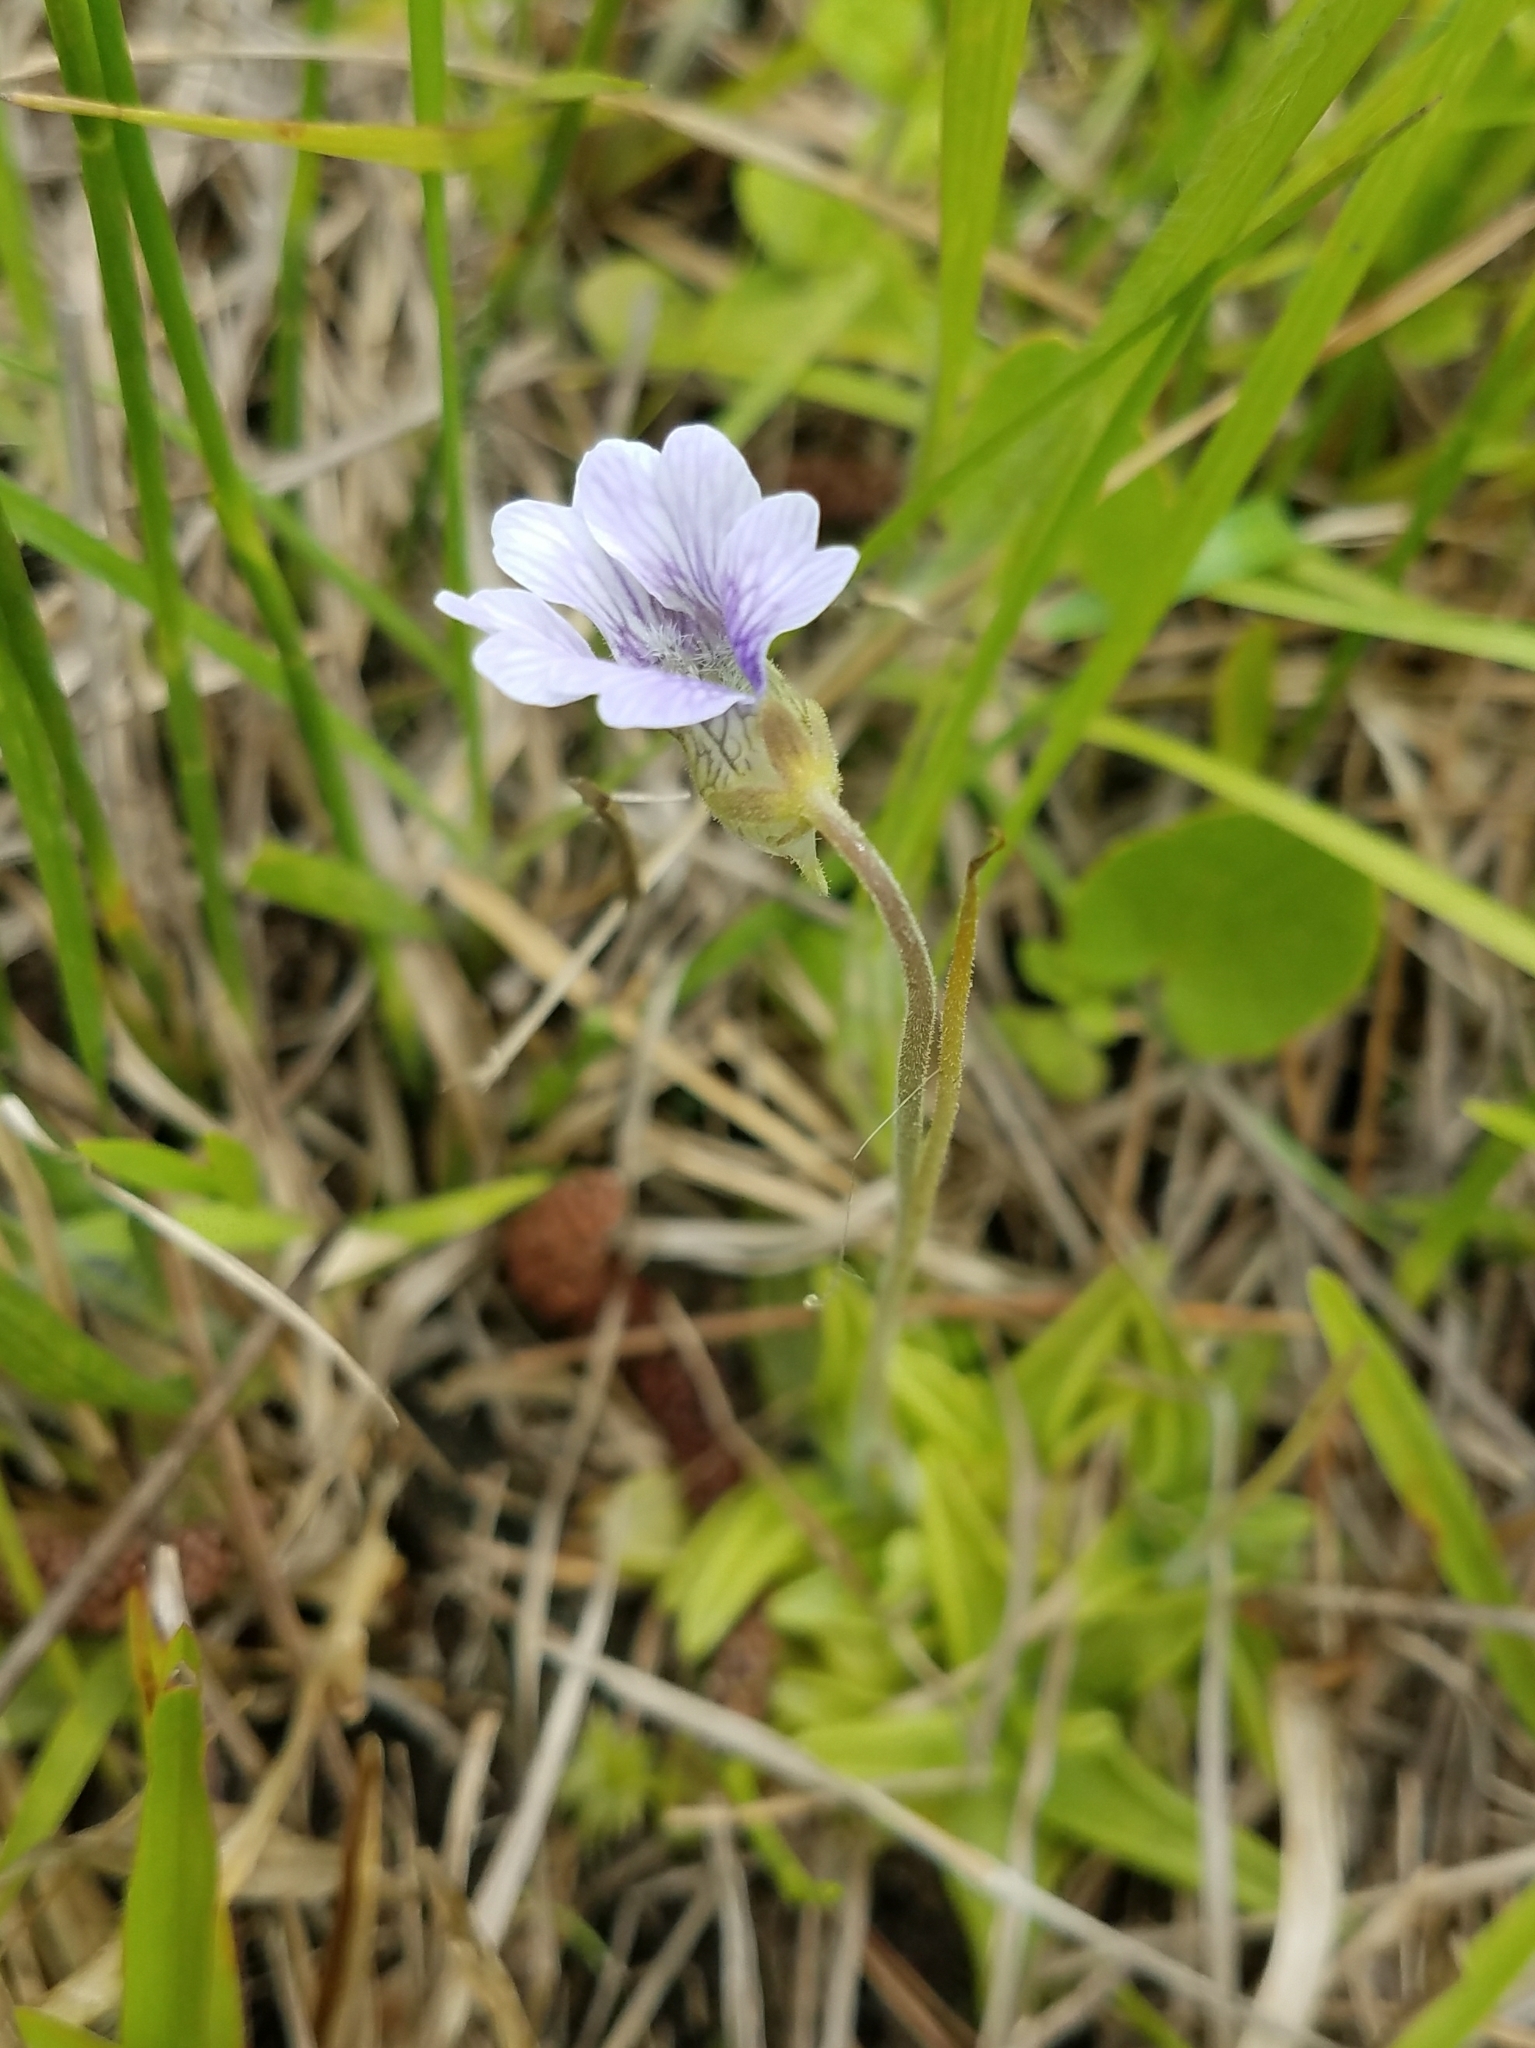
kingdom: Plantae
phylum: Tracheophyta
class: Magnoliopsida
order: Lamiales
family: Lentibulariaceae
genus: Pinguicula
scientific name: Pinguicula caerulea
